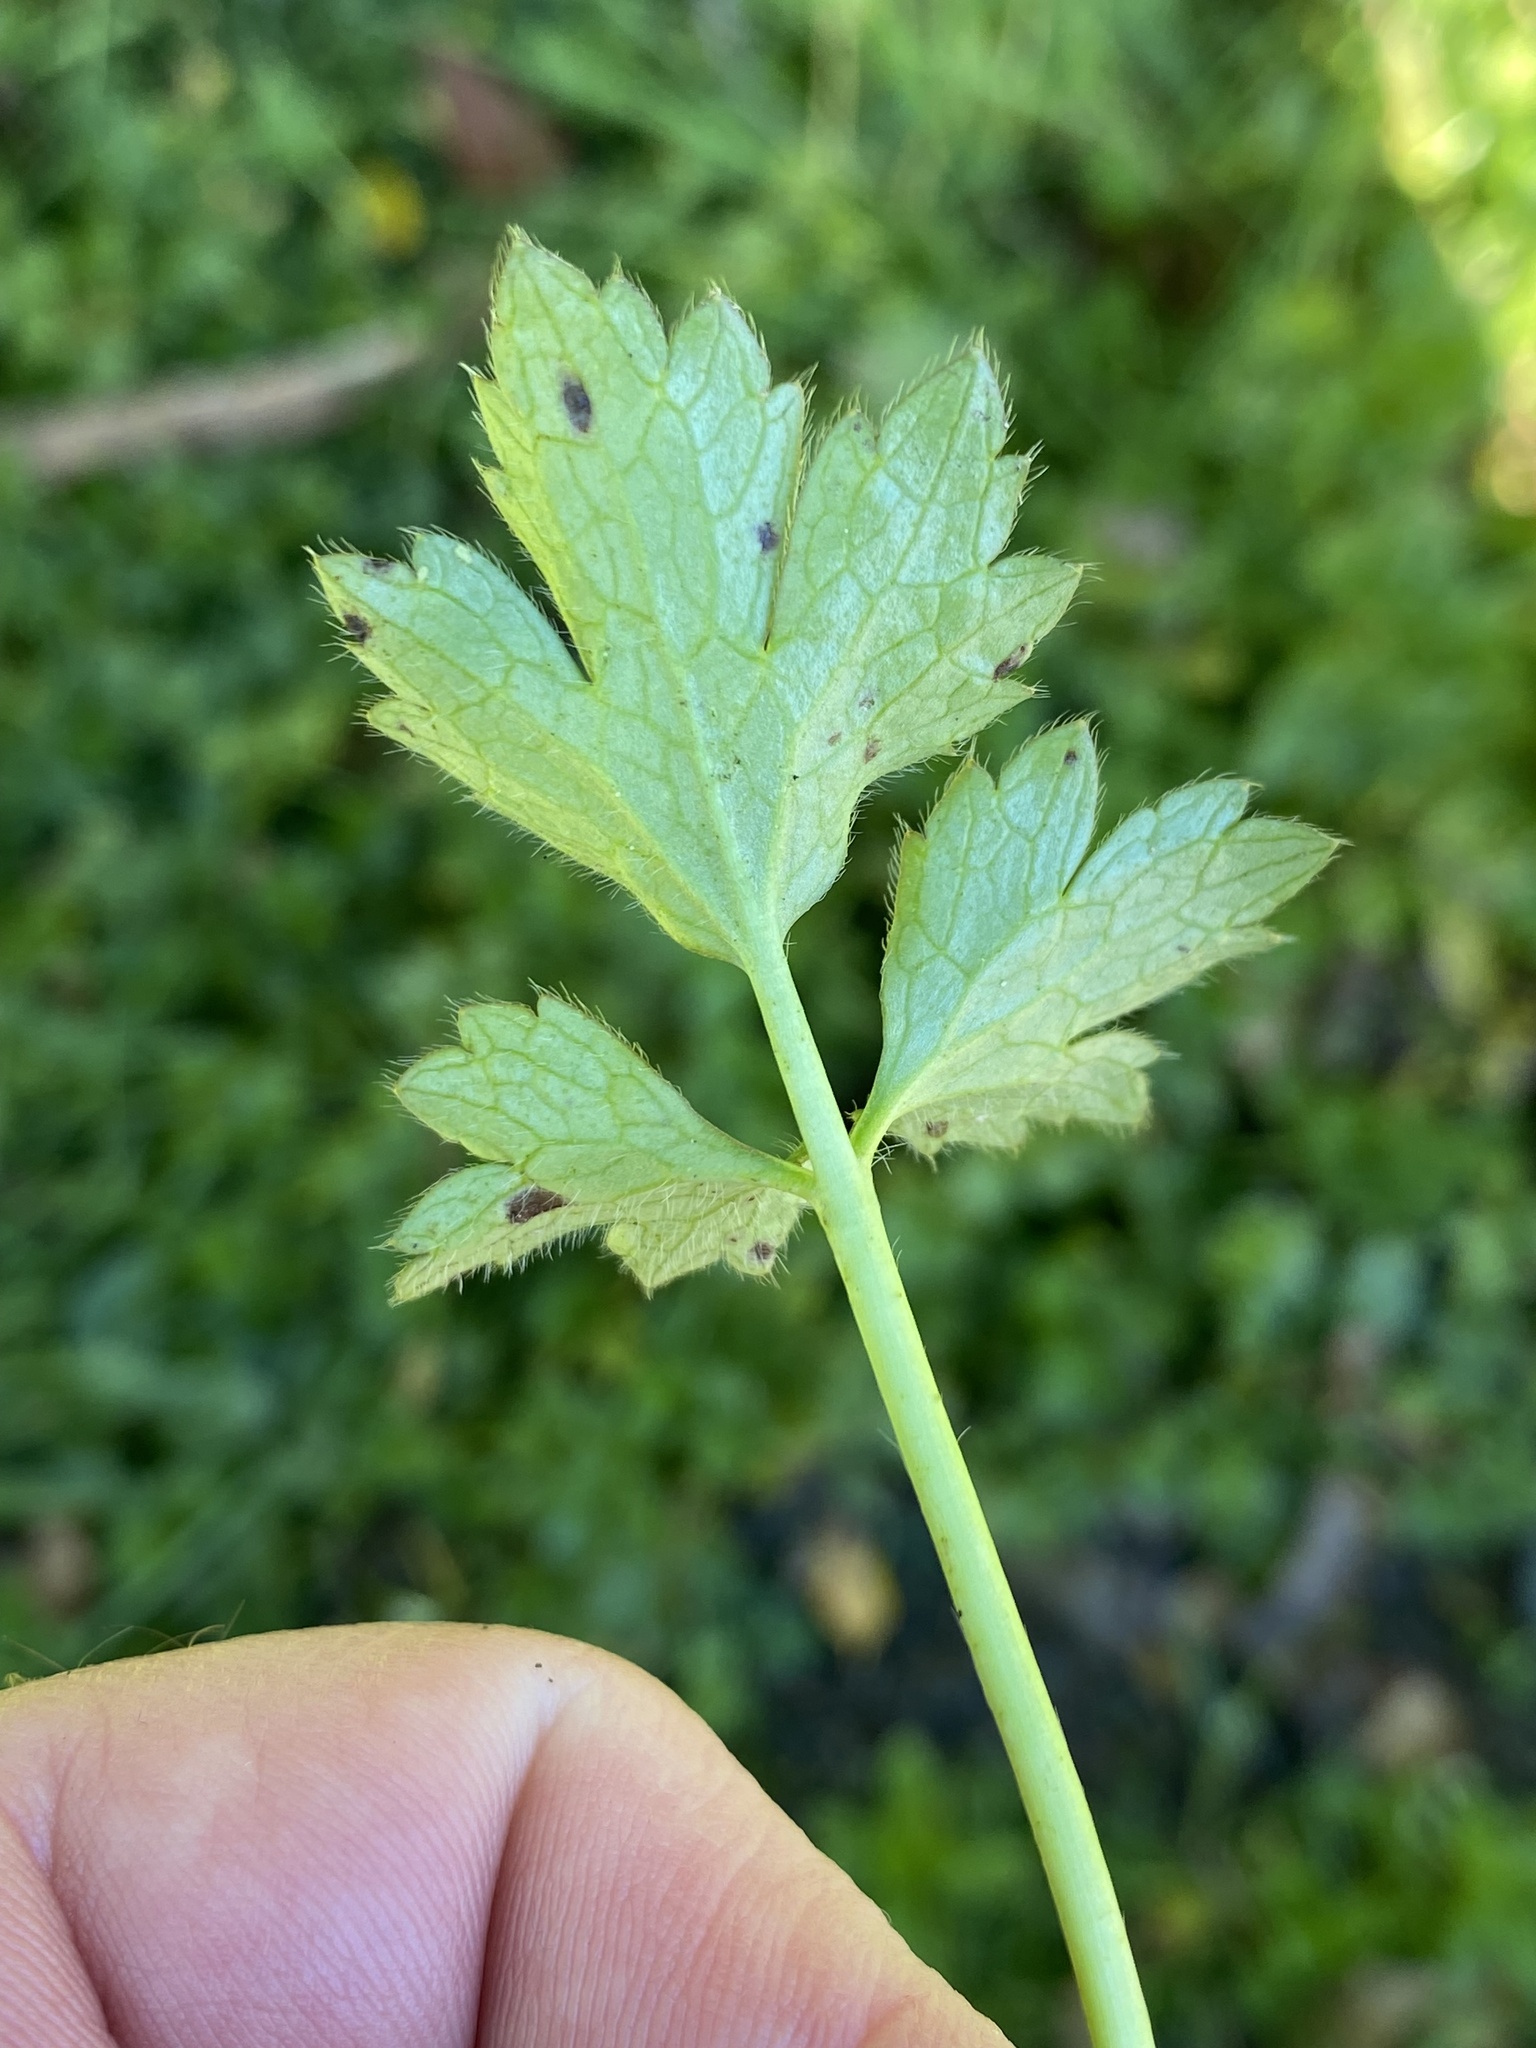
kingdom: Plantae
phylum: Tracheophyta
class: Magnoliopsida
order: Ranunculales
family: Ranunculaceae
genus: Ranunculus
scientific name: Ranunculus repens
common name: Creeping buttercup
